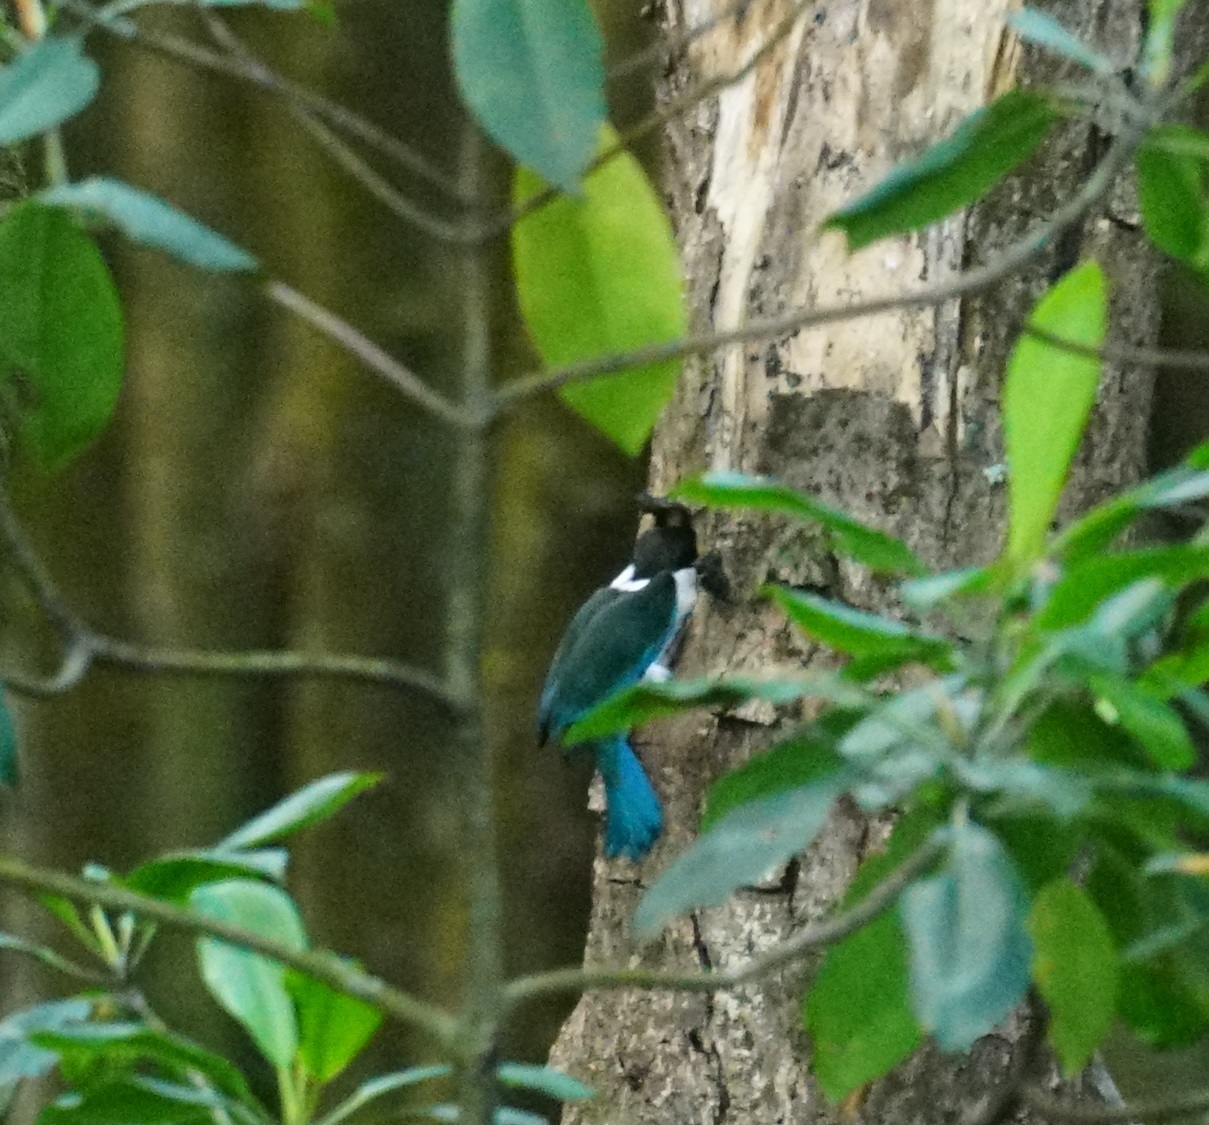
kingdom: Animalia
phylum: Chordata
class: Aves
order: Coraciiformes
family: Alcedinidae
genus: Todiramphus
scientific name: Todiramphus sordidus
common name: Torresian kingfisher
